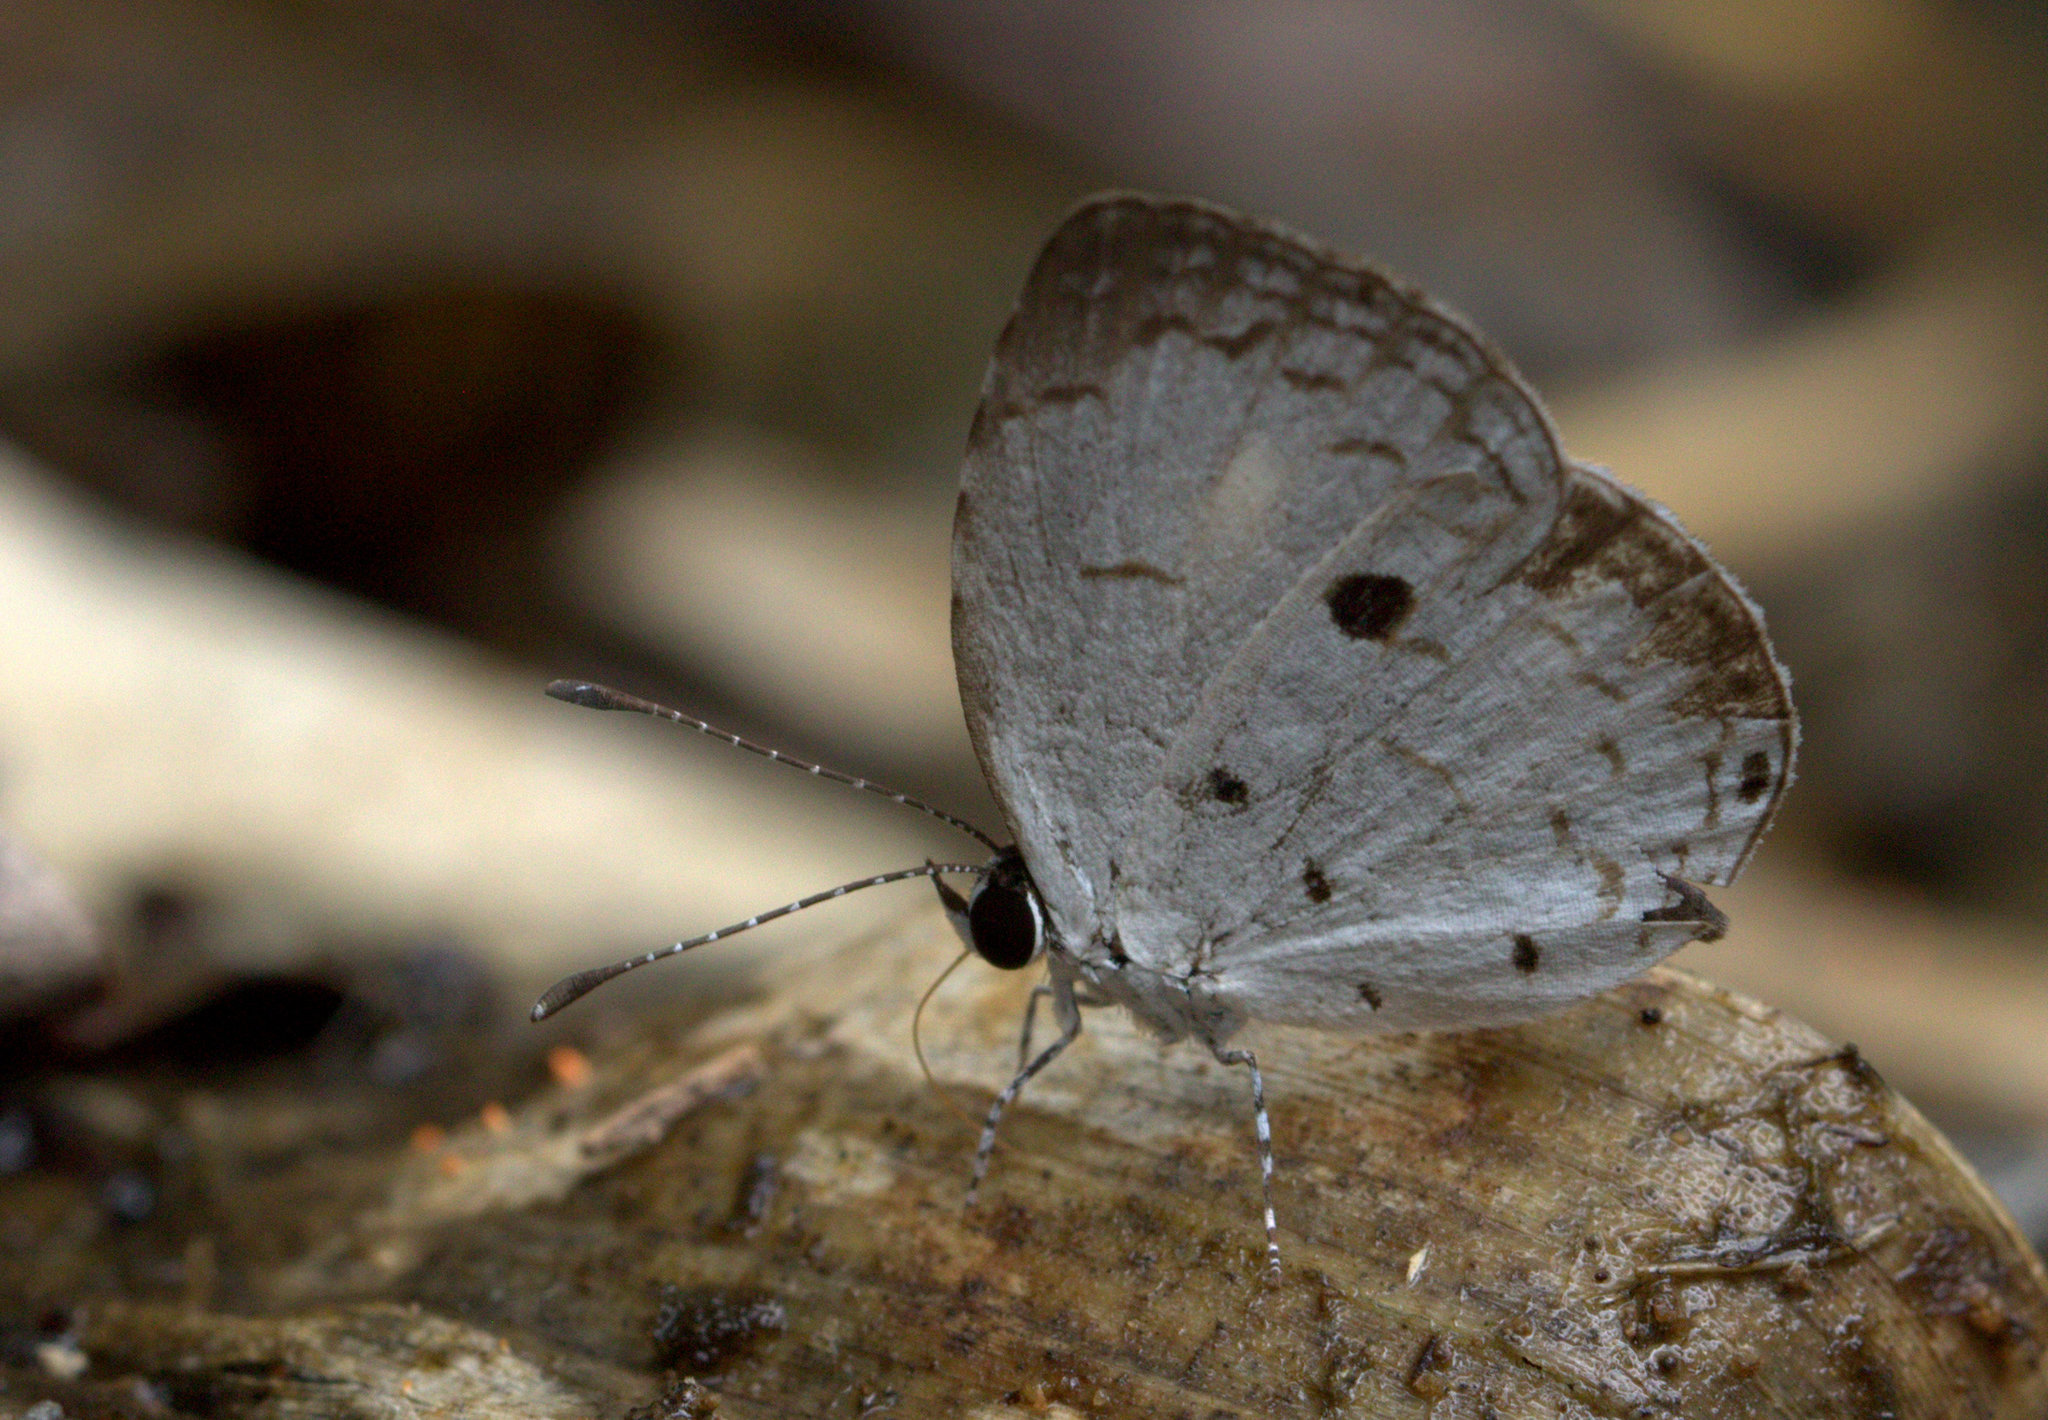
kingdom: Animalia
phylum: Arthropoda
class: Insecta
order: Lepidoptera
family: Lycaenidae
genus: Neopithecops
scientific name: Neopithecops zalmora
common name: Quaker
